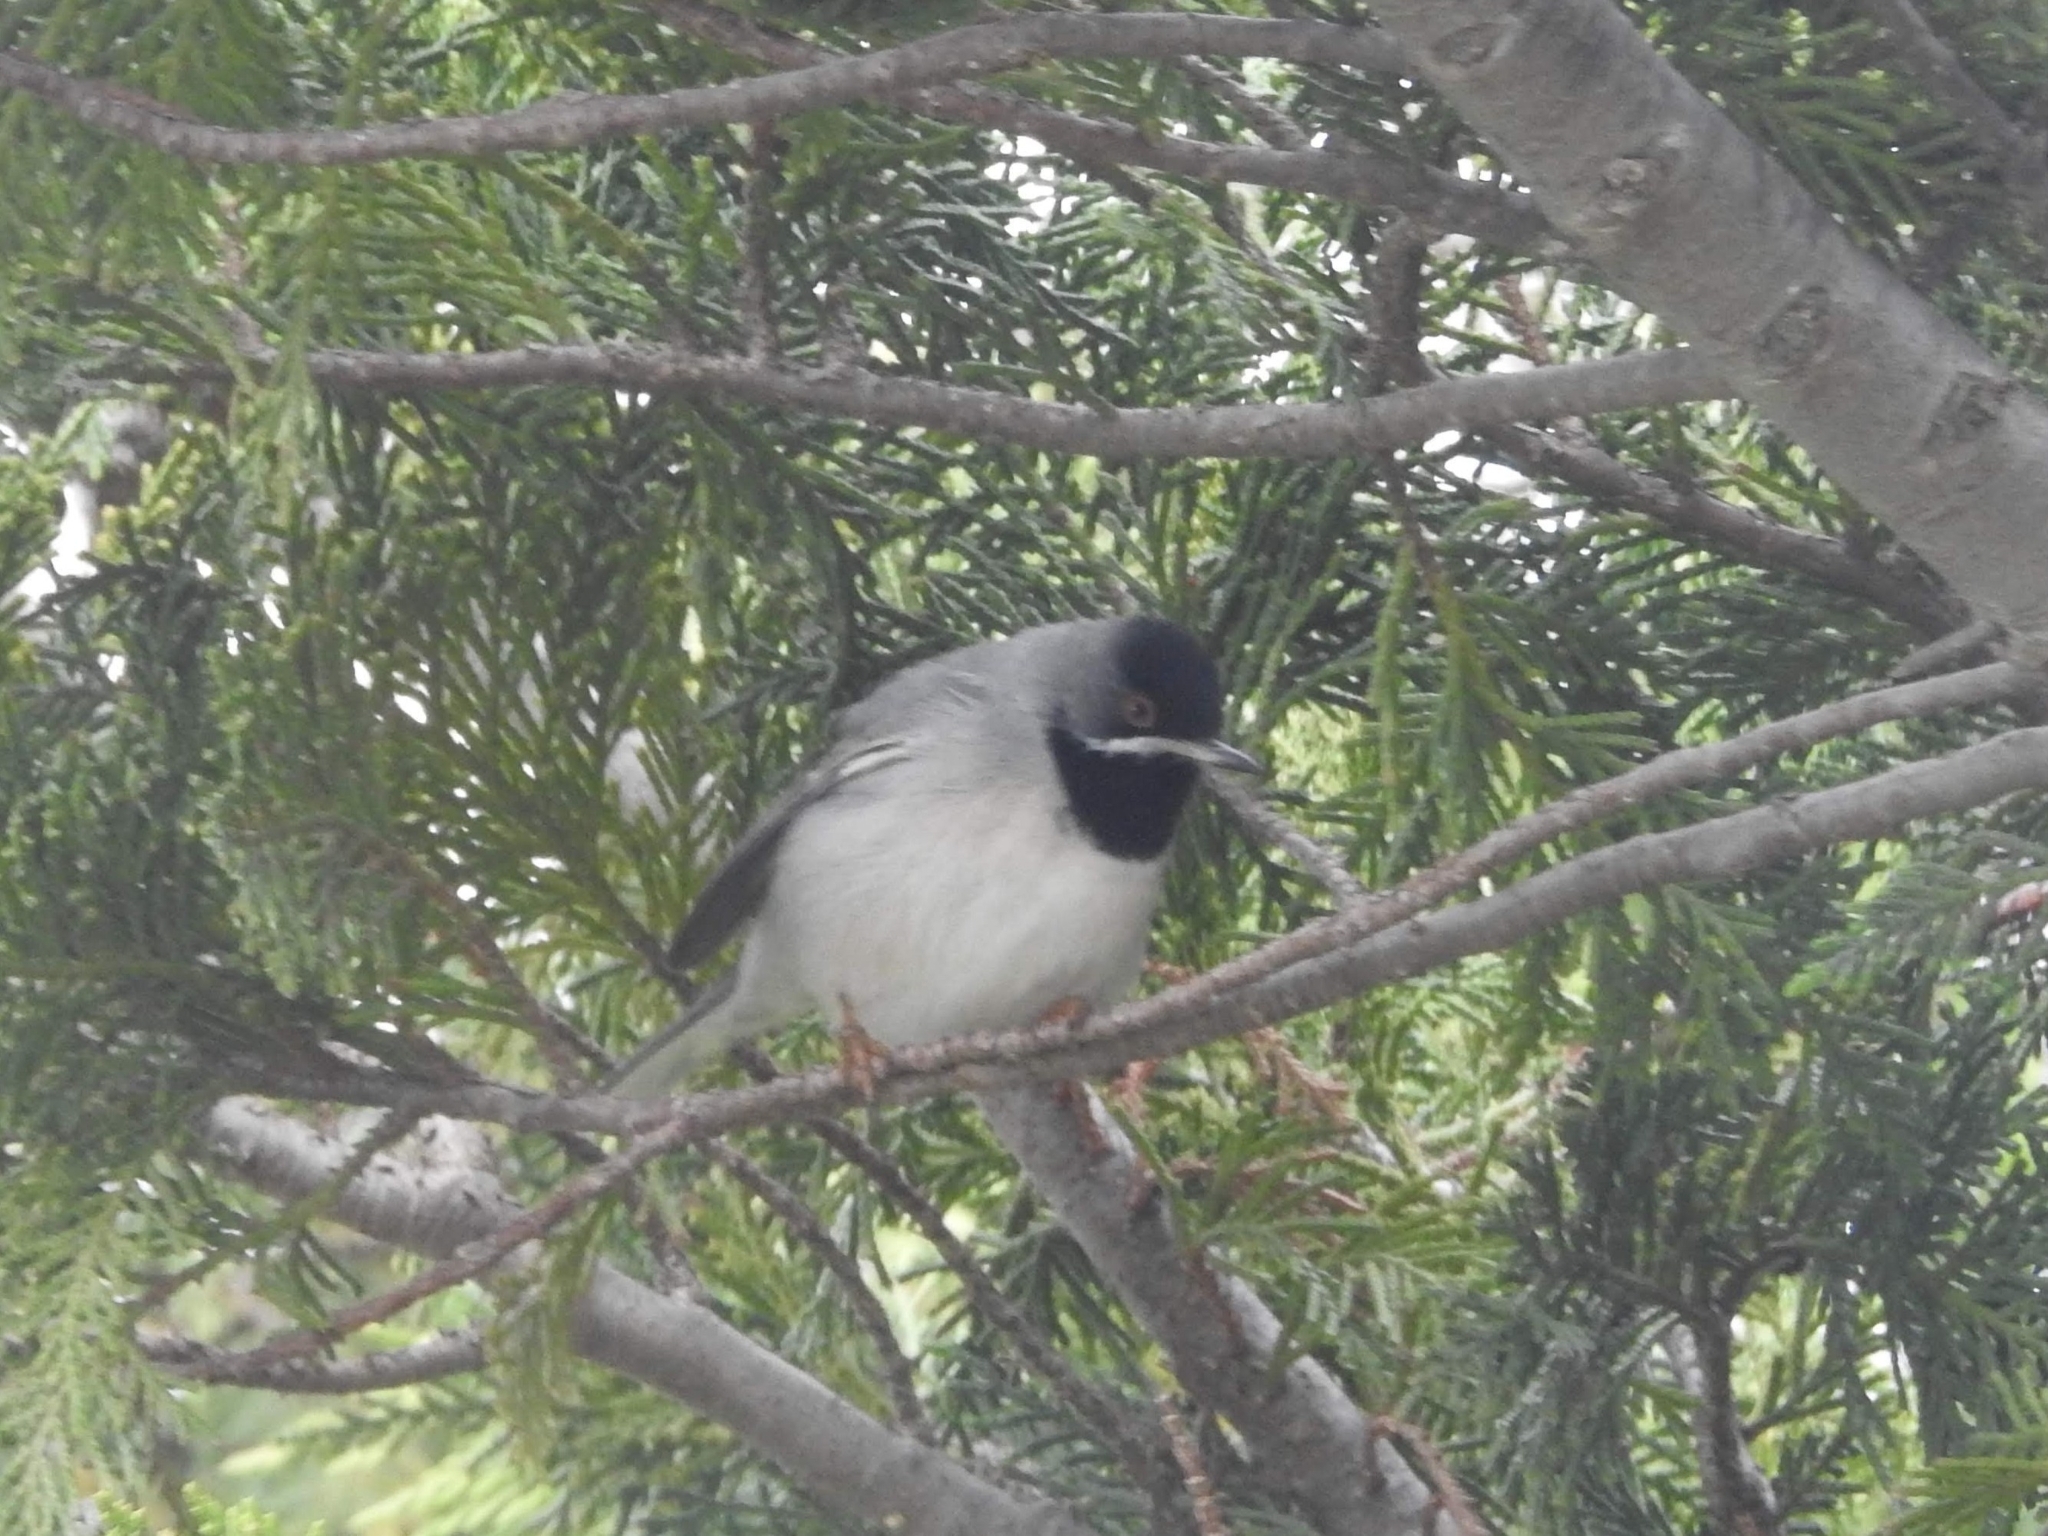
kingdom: Animalia
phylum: Chordata
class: Aves
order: Passeriformes
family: Sylviidae
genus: Sylvia
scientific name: Sylvia ruppeli
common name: Rüppell's warbler
